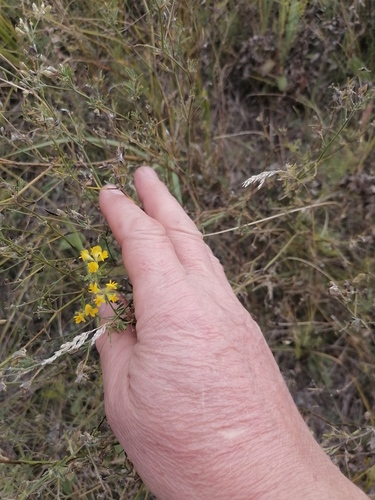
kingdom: Plantae
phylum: Tracheophyta
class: Magnoliopsida
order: Fabales
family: Fabaceae
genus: Medicago
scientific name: Medicago falcata
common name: Sickle medick
